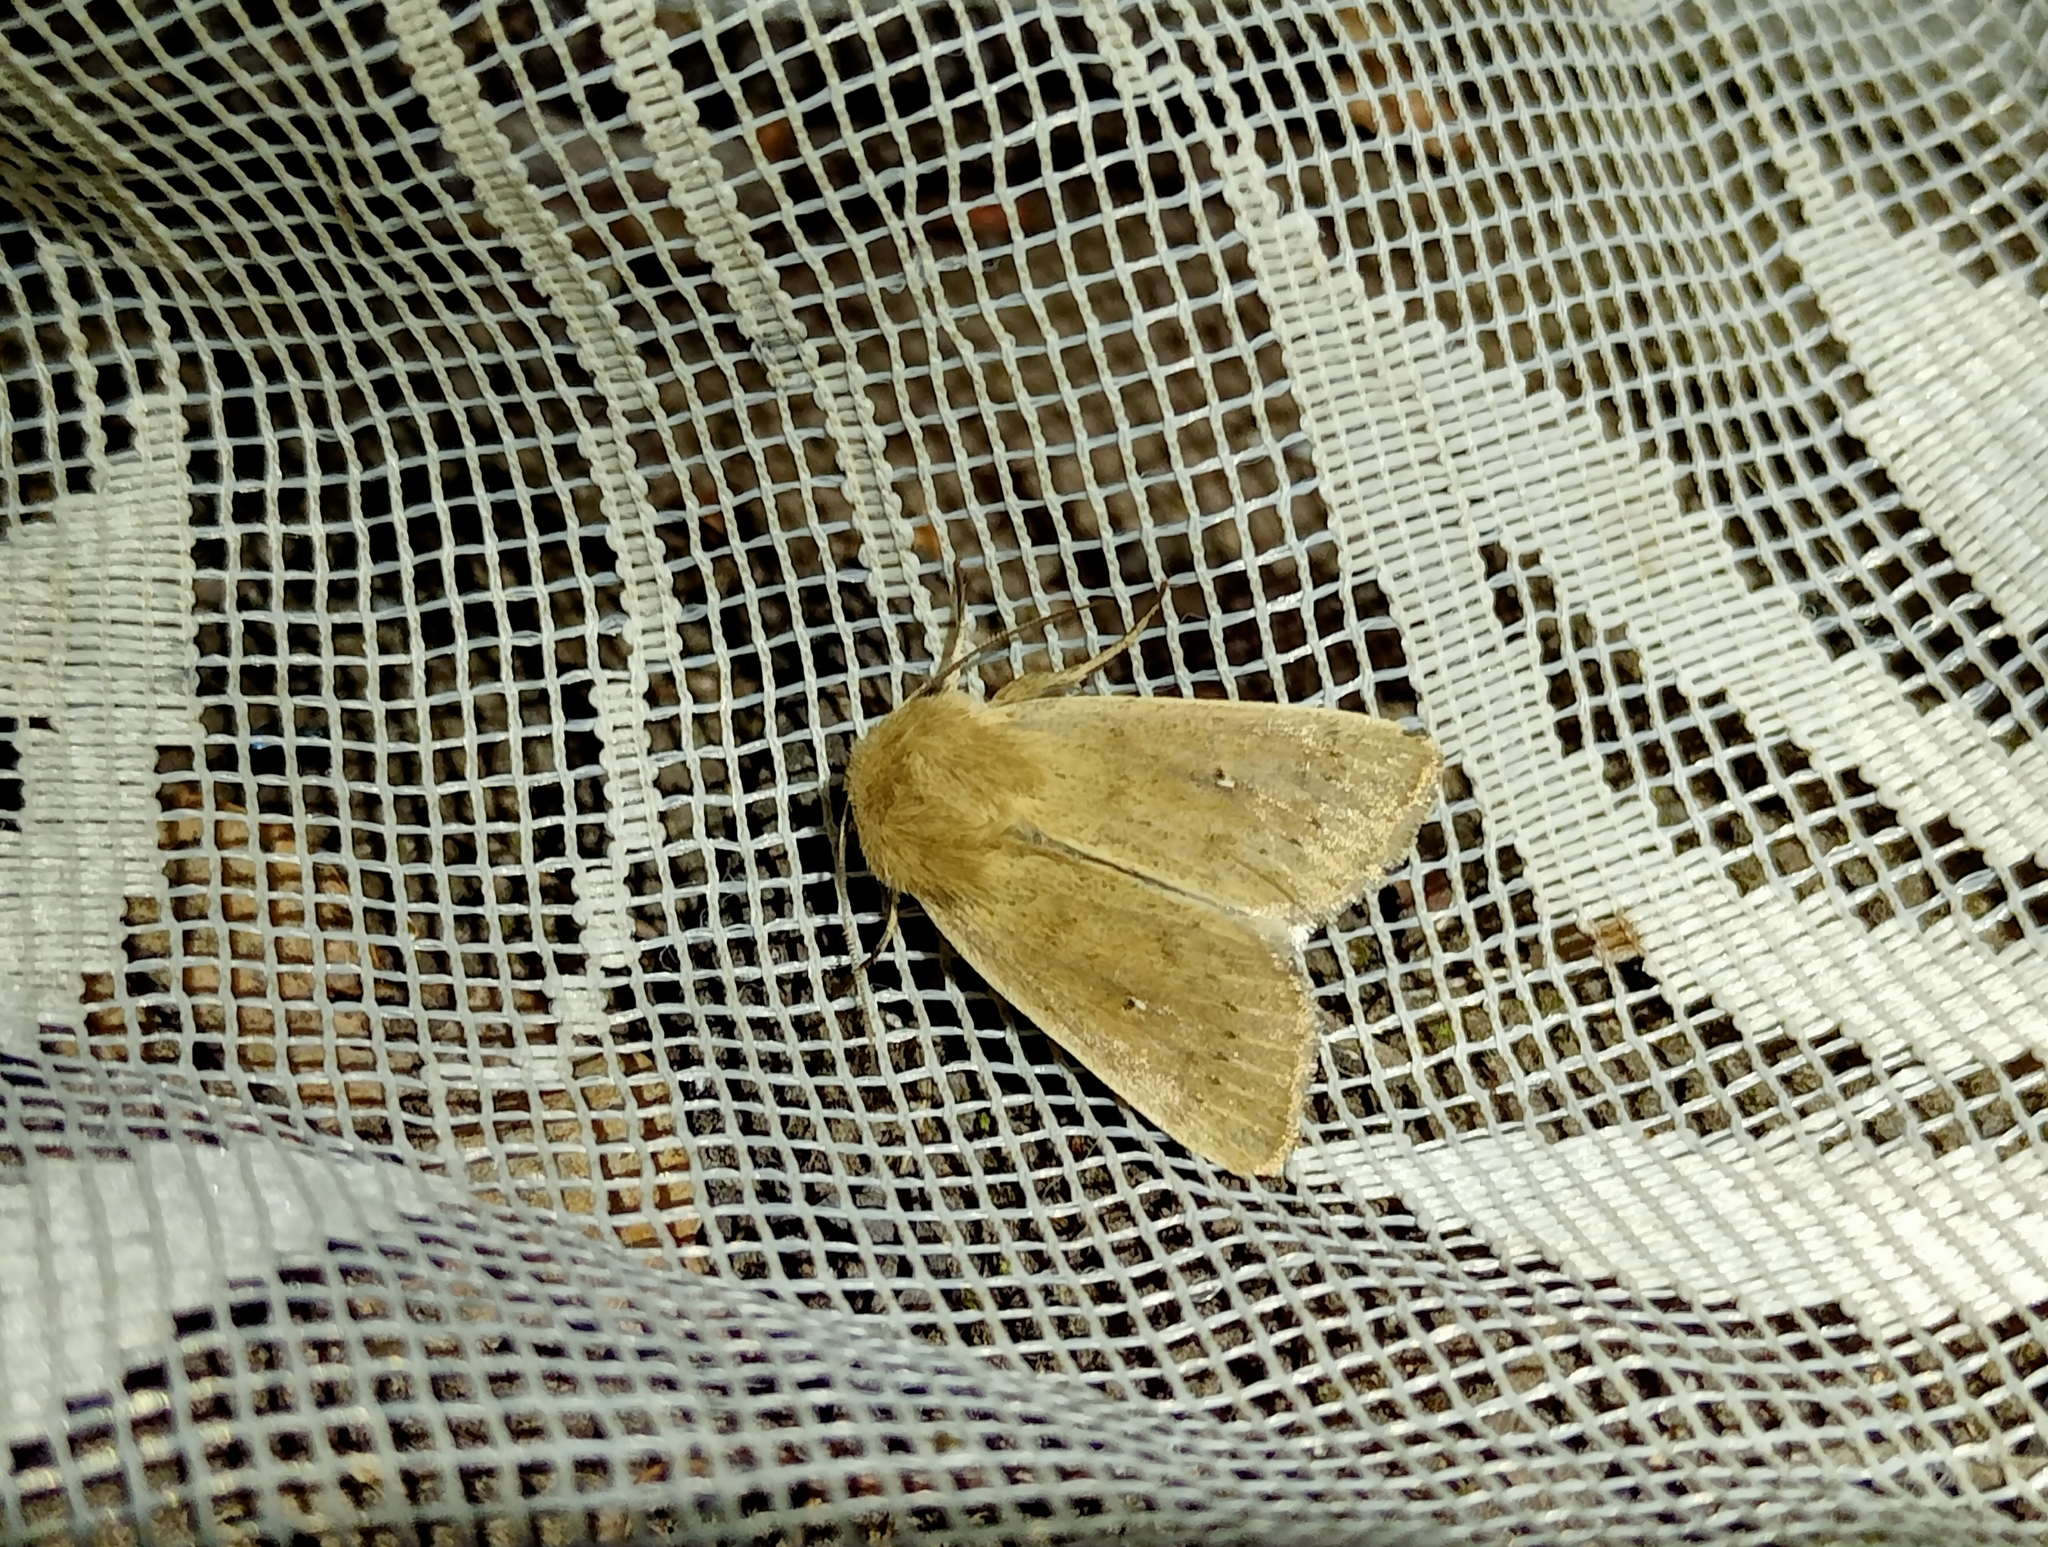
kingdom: Animalia
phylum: Arthropoda
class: Insecta
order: Lepidoptera
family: Noctuidae
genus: Mythimna
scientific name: Mythimna sicula
